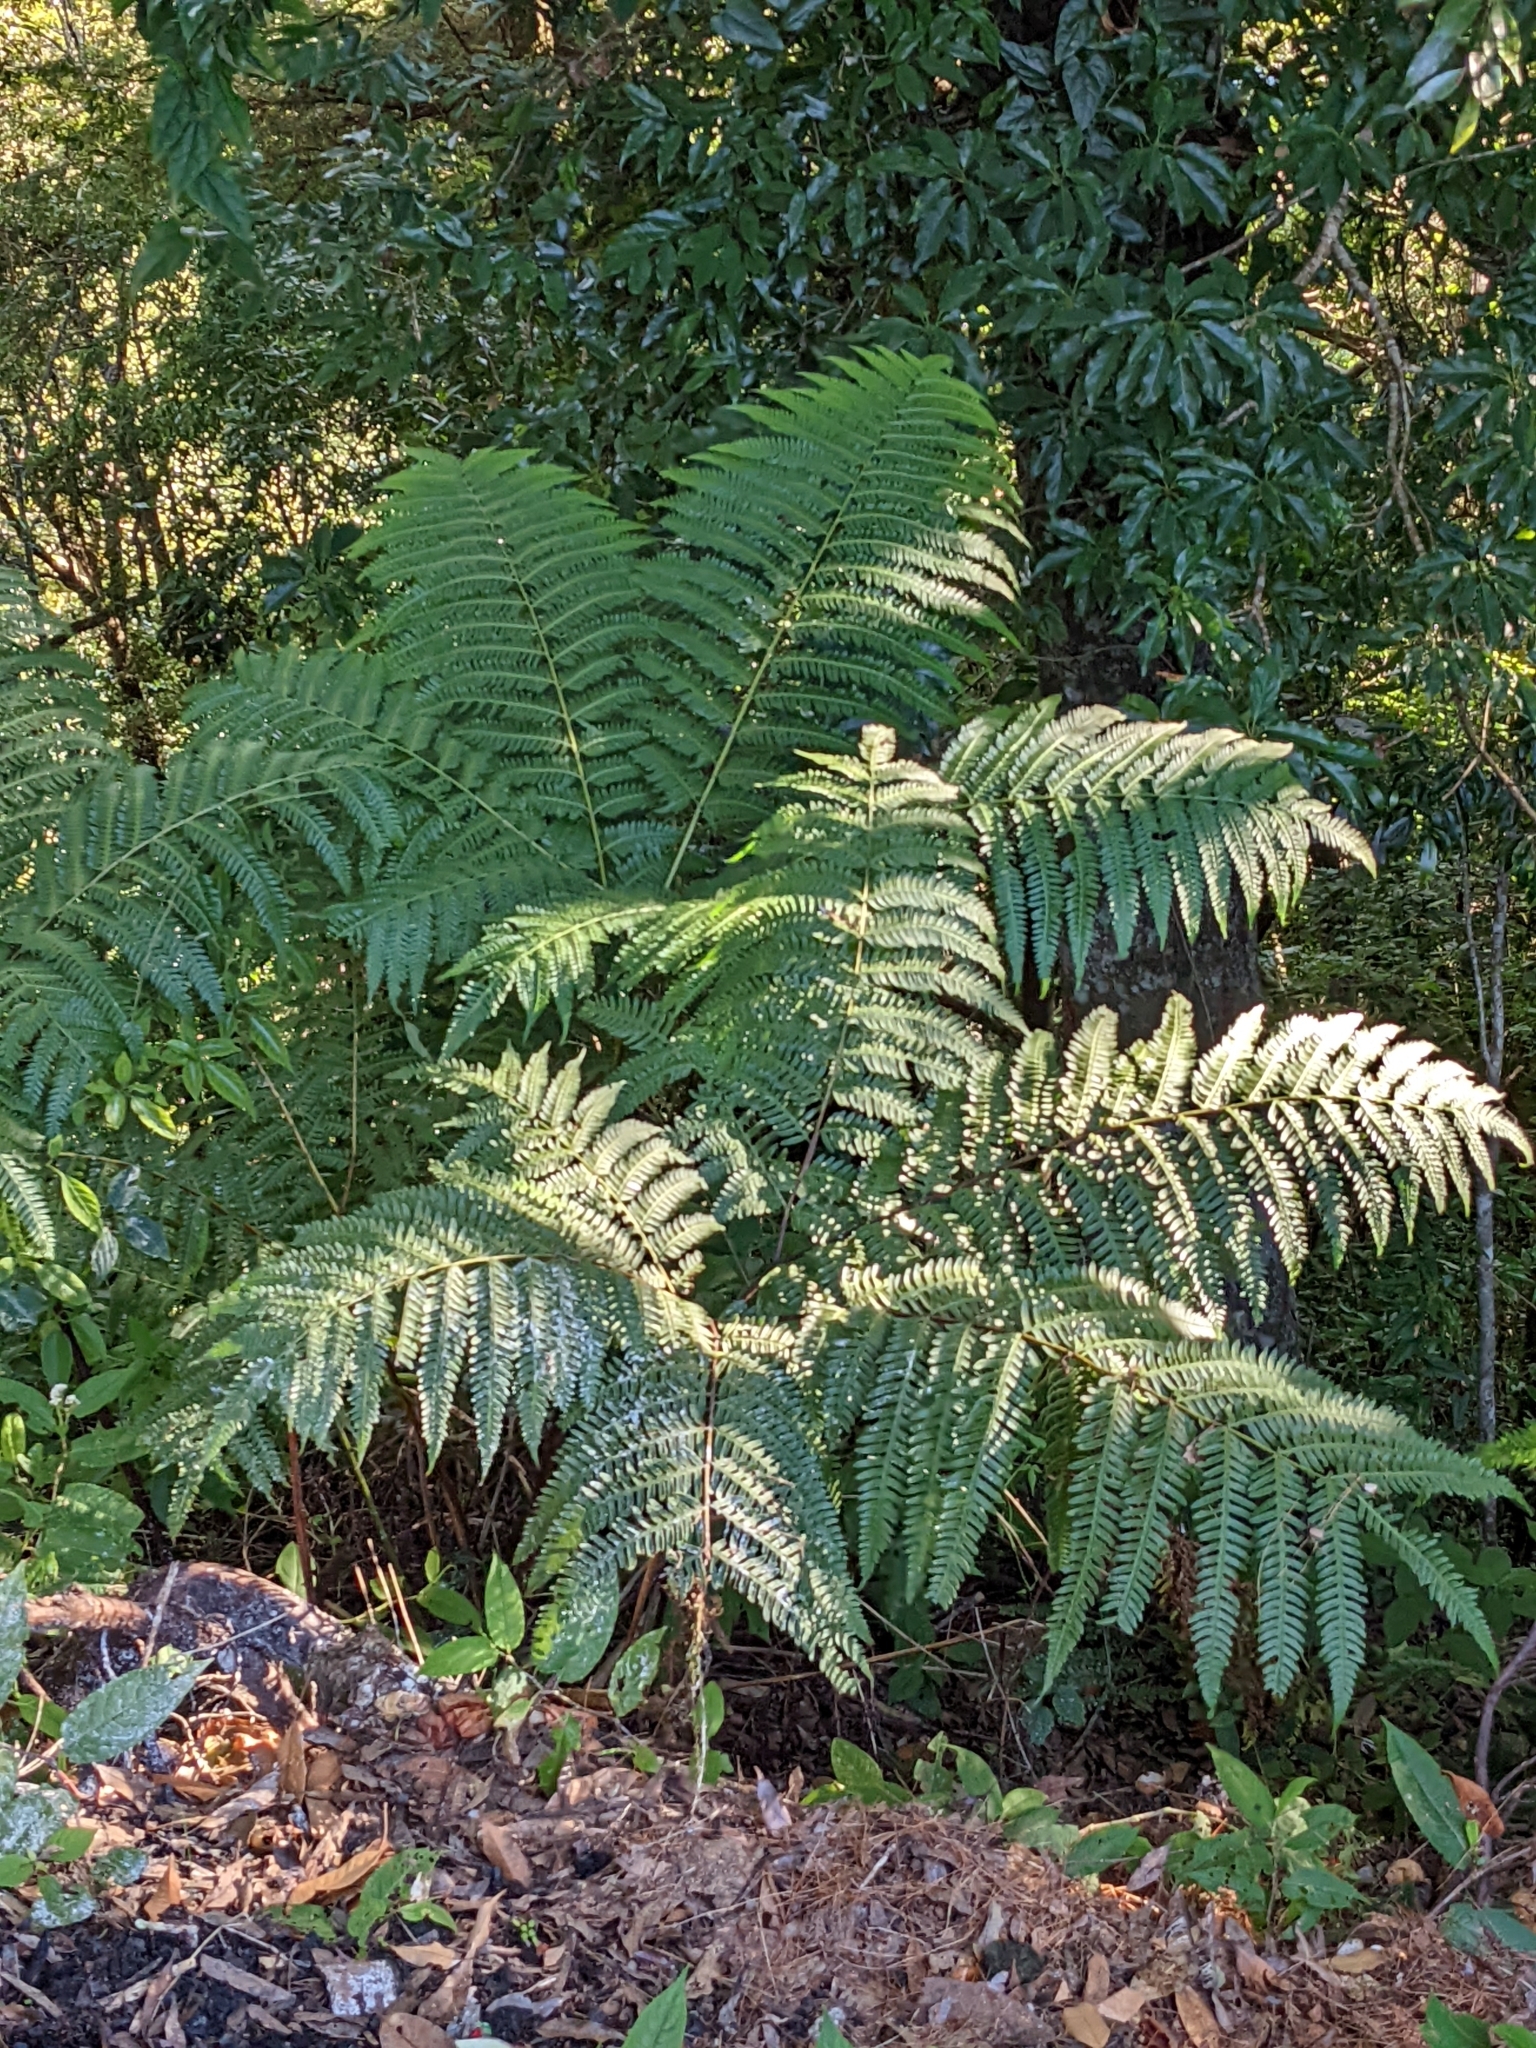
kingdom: Plantae
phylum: Tracheophyta
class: Polypodiopsida
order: Polypodiales
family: Pteridaceae
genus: Pteris
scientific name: Pteris wallichiana
